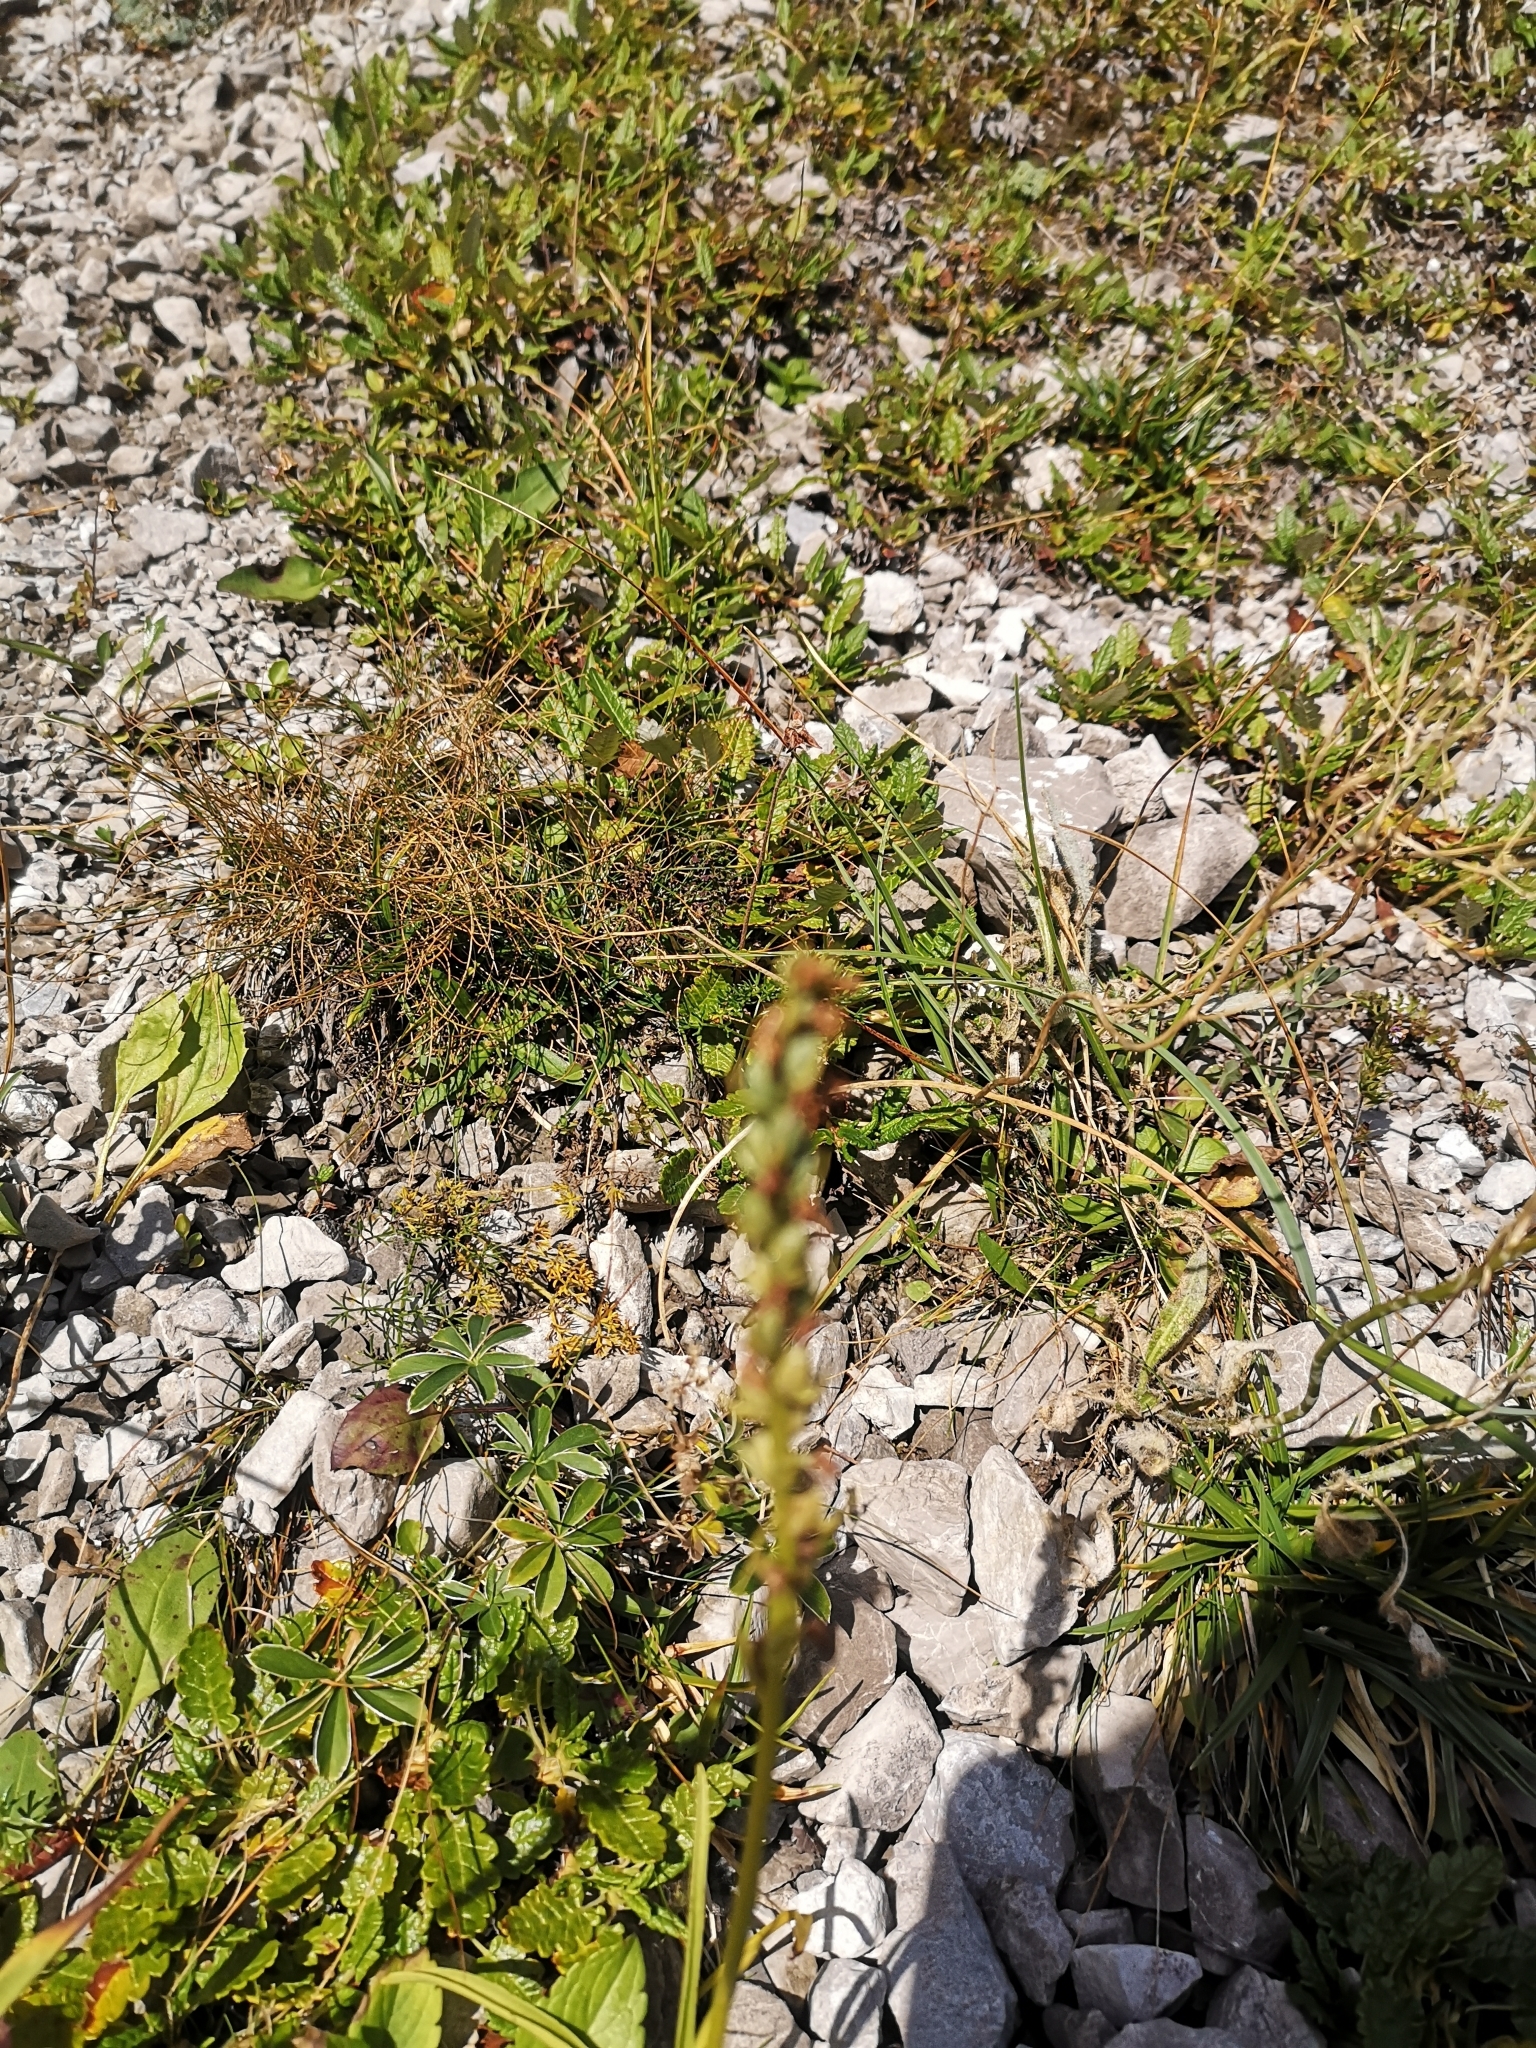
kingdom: Plantae
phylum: Tracheophyta
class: Liliopsida
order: Asparagales
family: Orchidaceae
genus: Gymnadenia
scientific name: Gymnadenia conopsea
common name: Fragrant orchid
